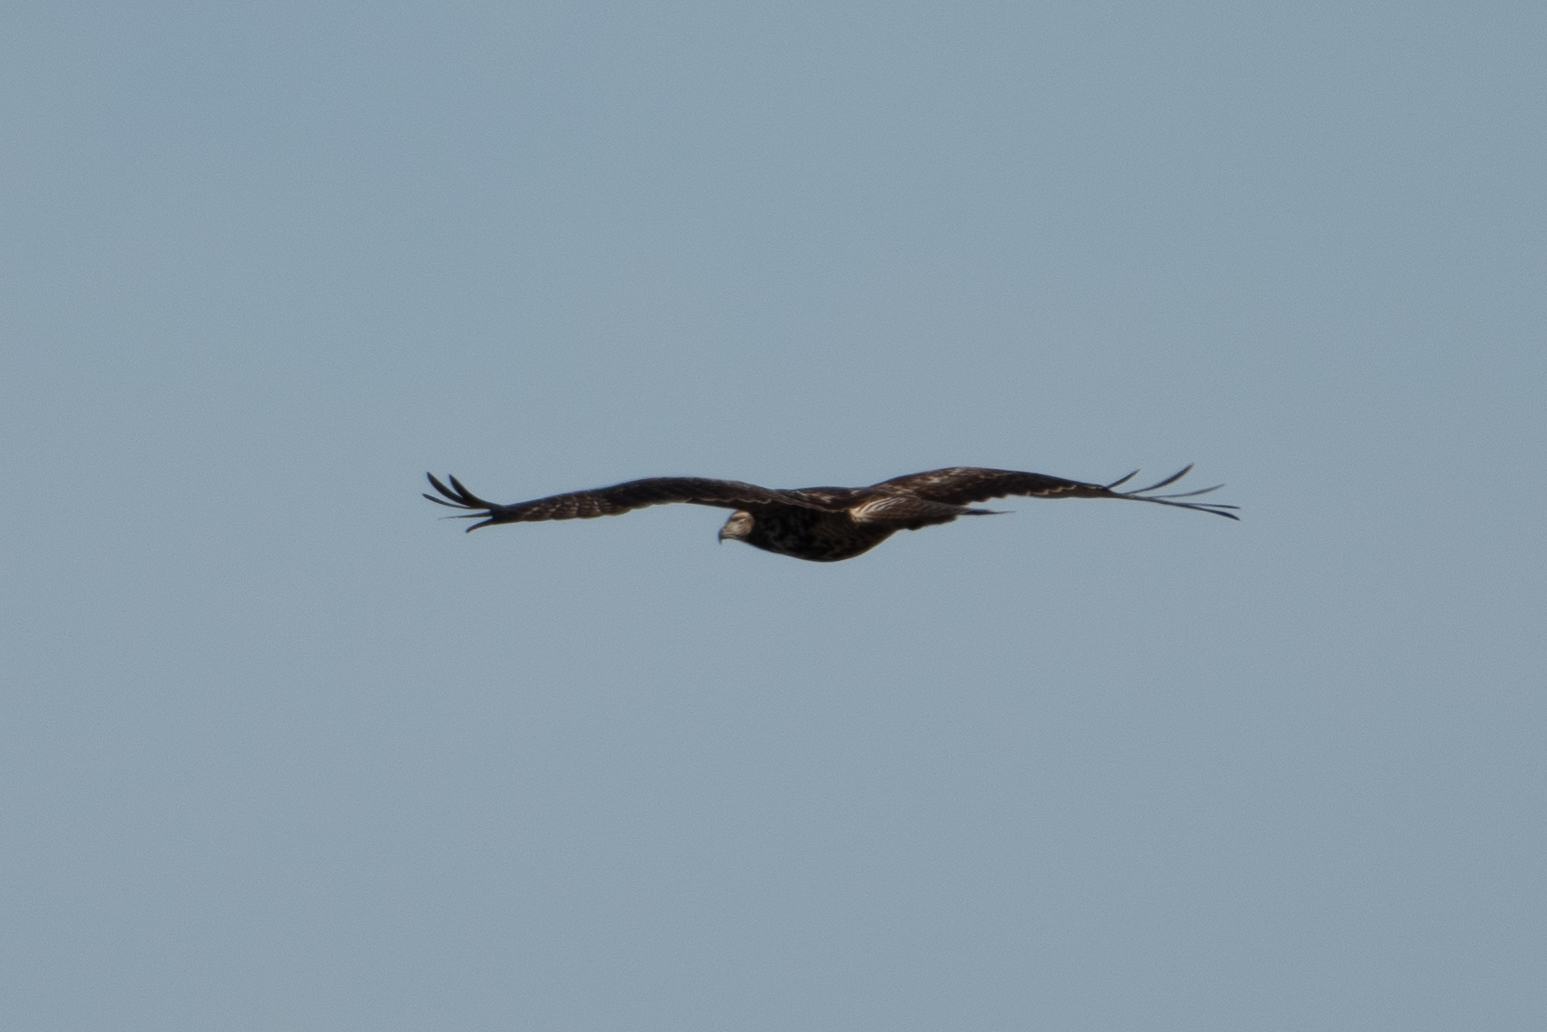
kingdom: Animalia
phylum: Chordata
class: Aves
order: Accipitriformes
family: Accipitridae
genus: Buteo
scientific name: Buteo jamaicensis
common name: Red-tailed hawk
